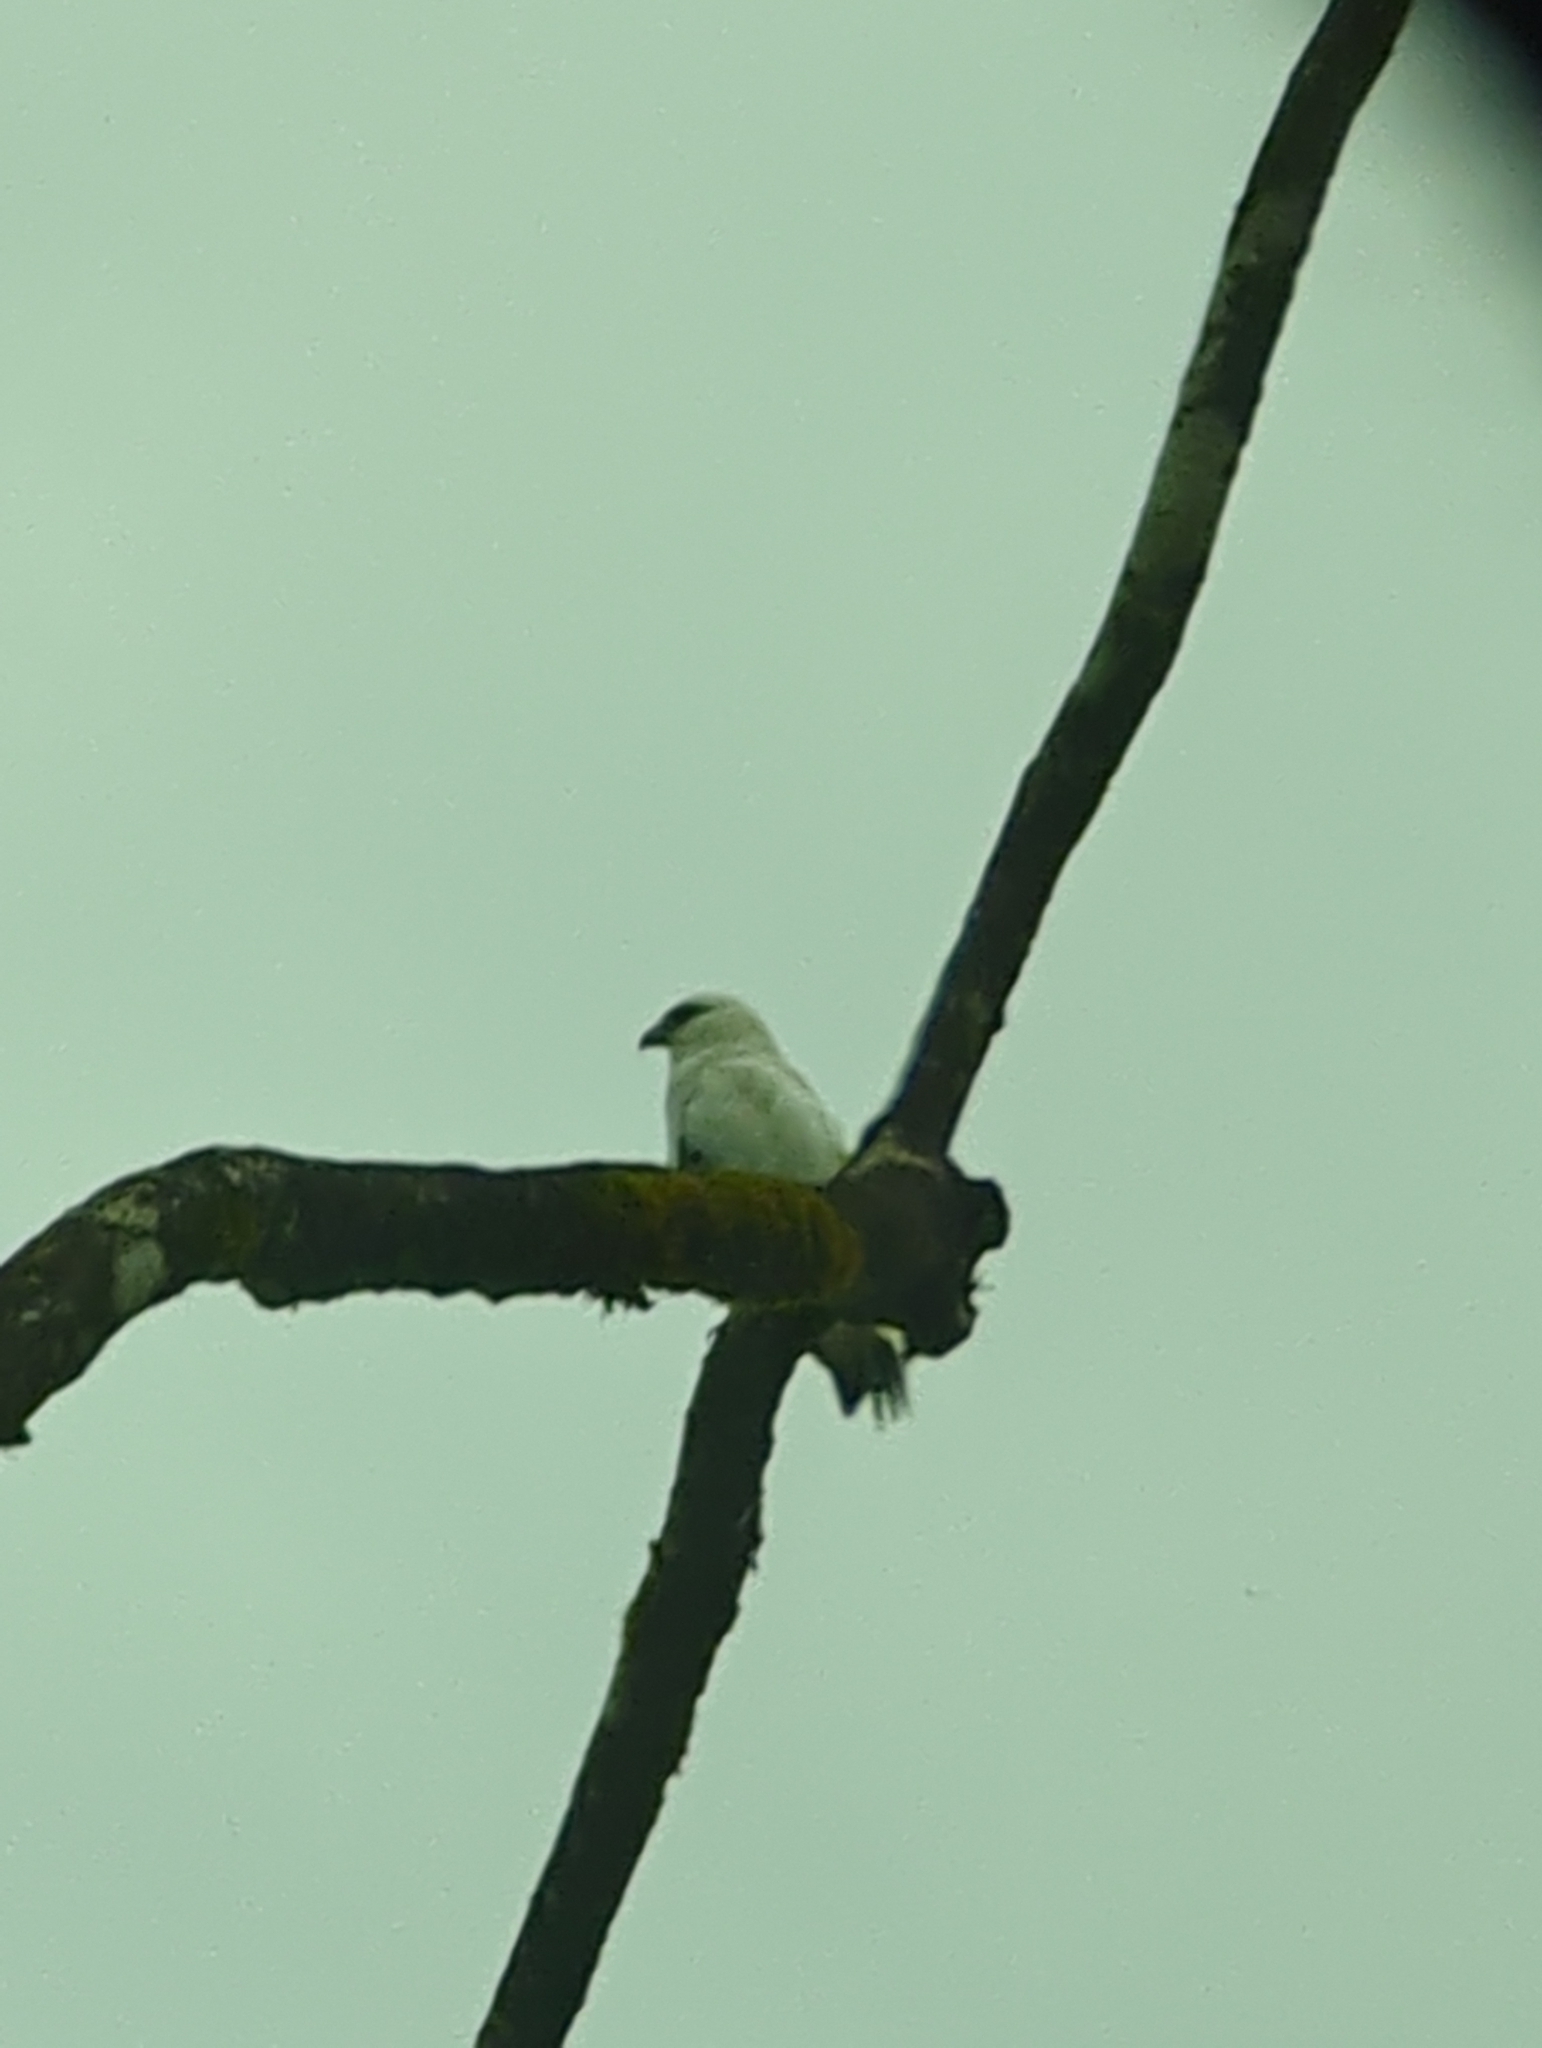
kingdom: Animalia
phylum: Chordata
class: Aves
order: Accipitriformes
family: Accipitridae
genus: Leucopternis
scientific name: Leucopternis albicollis
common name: White hawk
